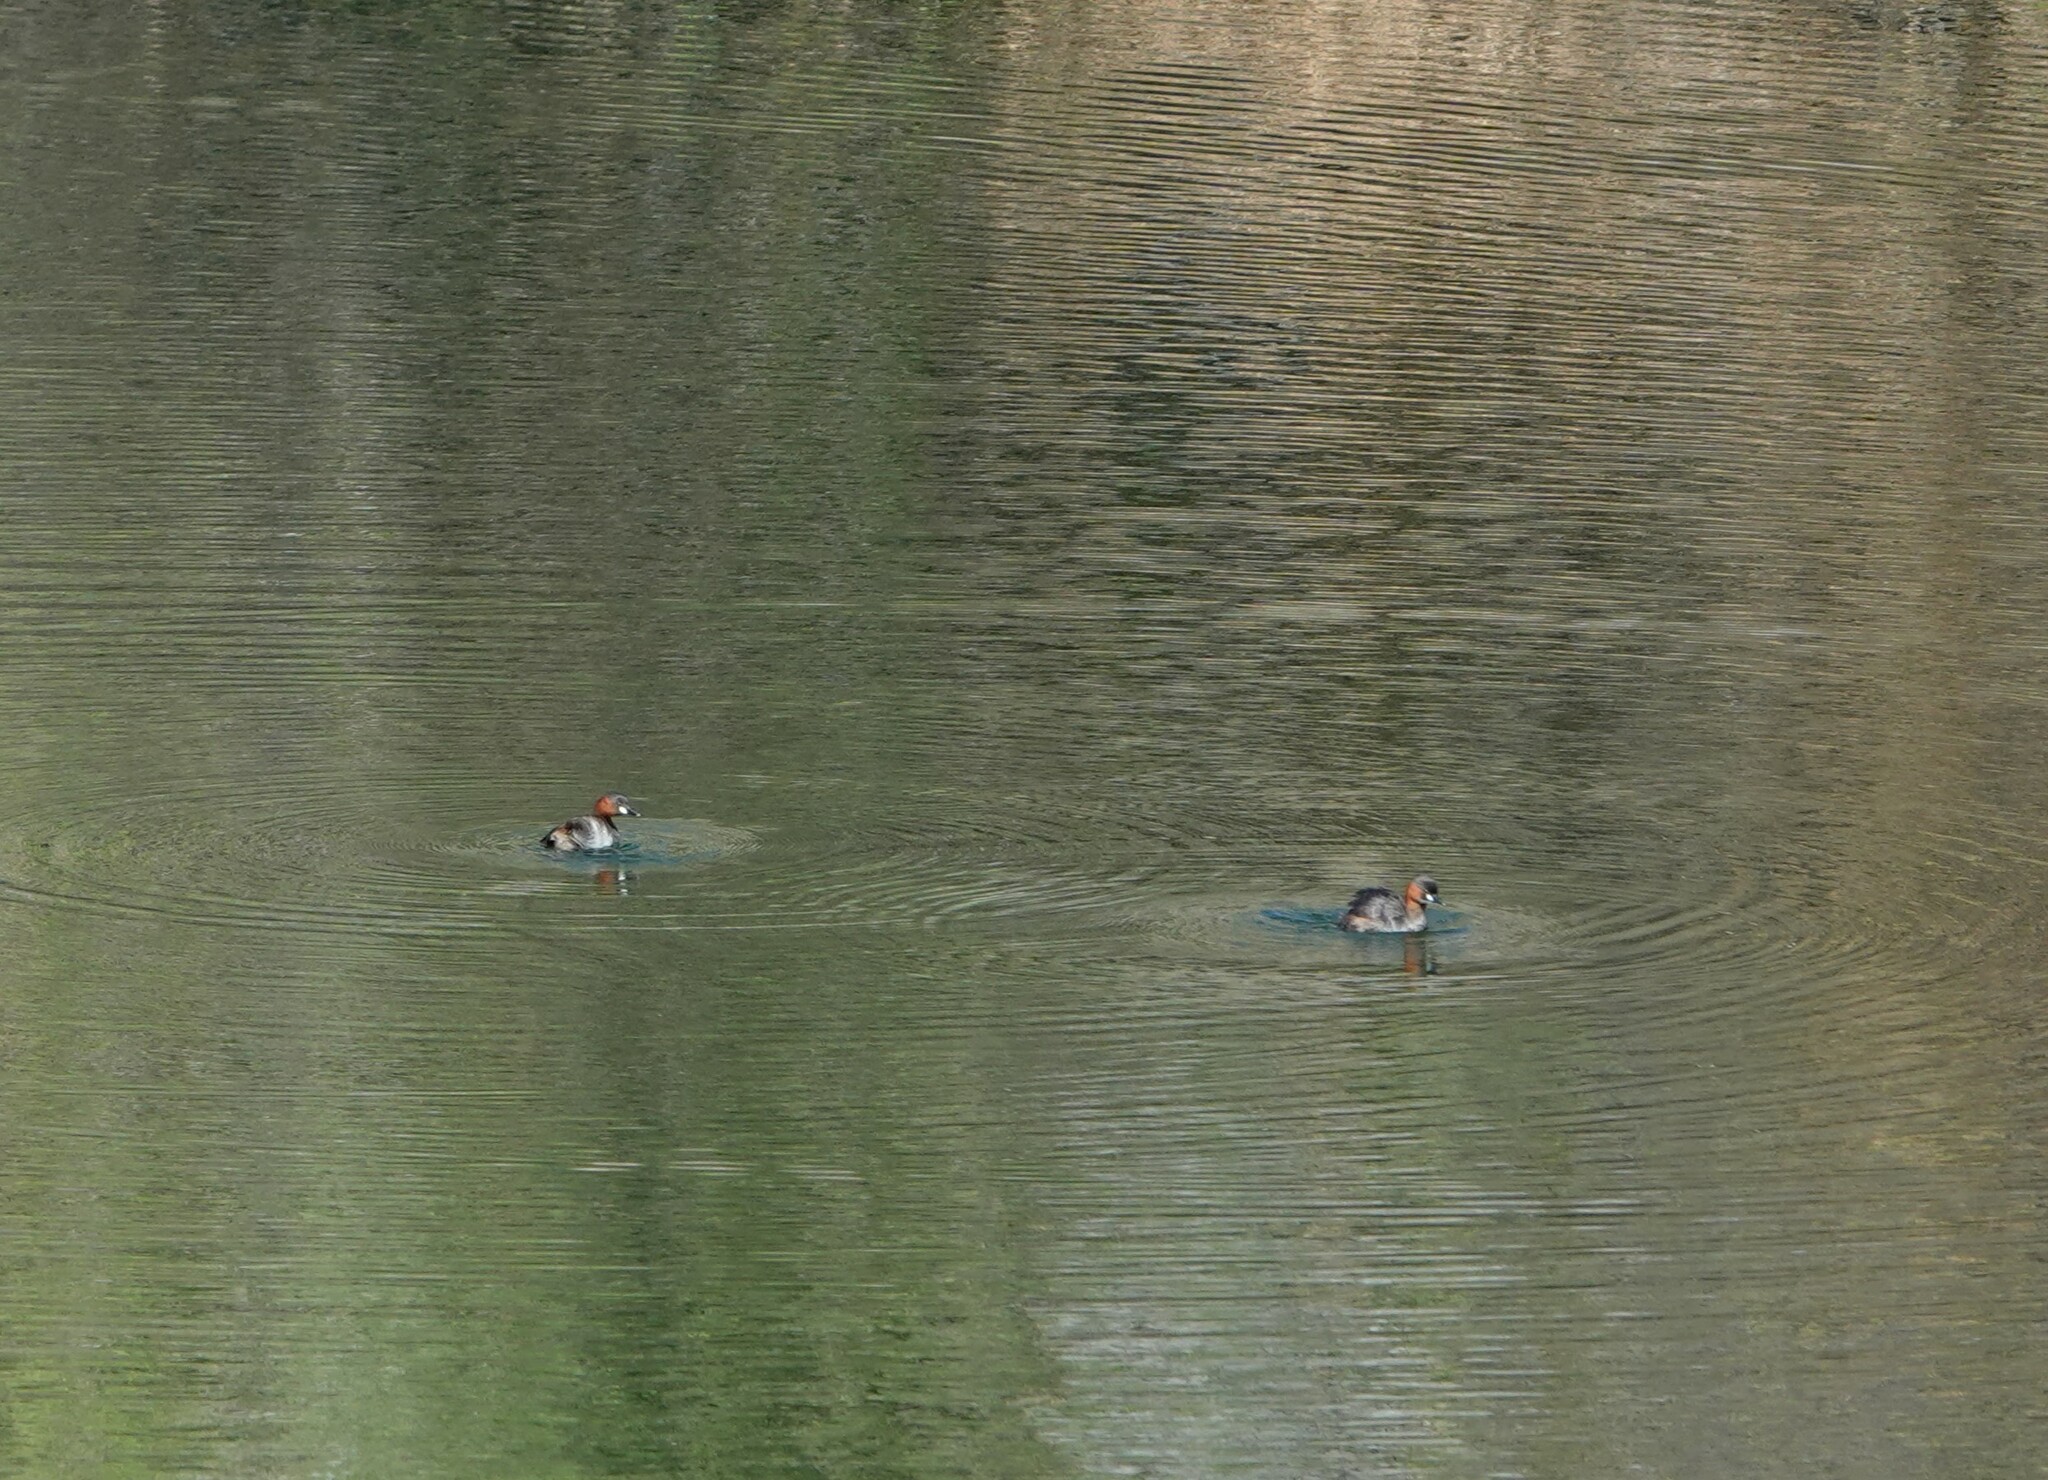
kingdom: Animalia
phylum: Chordata
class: Aves
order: Podicipediformes
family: Podicipedidae
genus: Tachybaptus
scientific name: Tachybaptus ruficollis
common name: Little grebe
